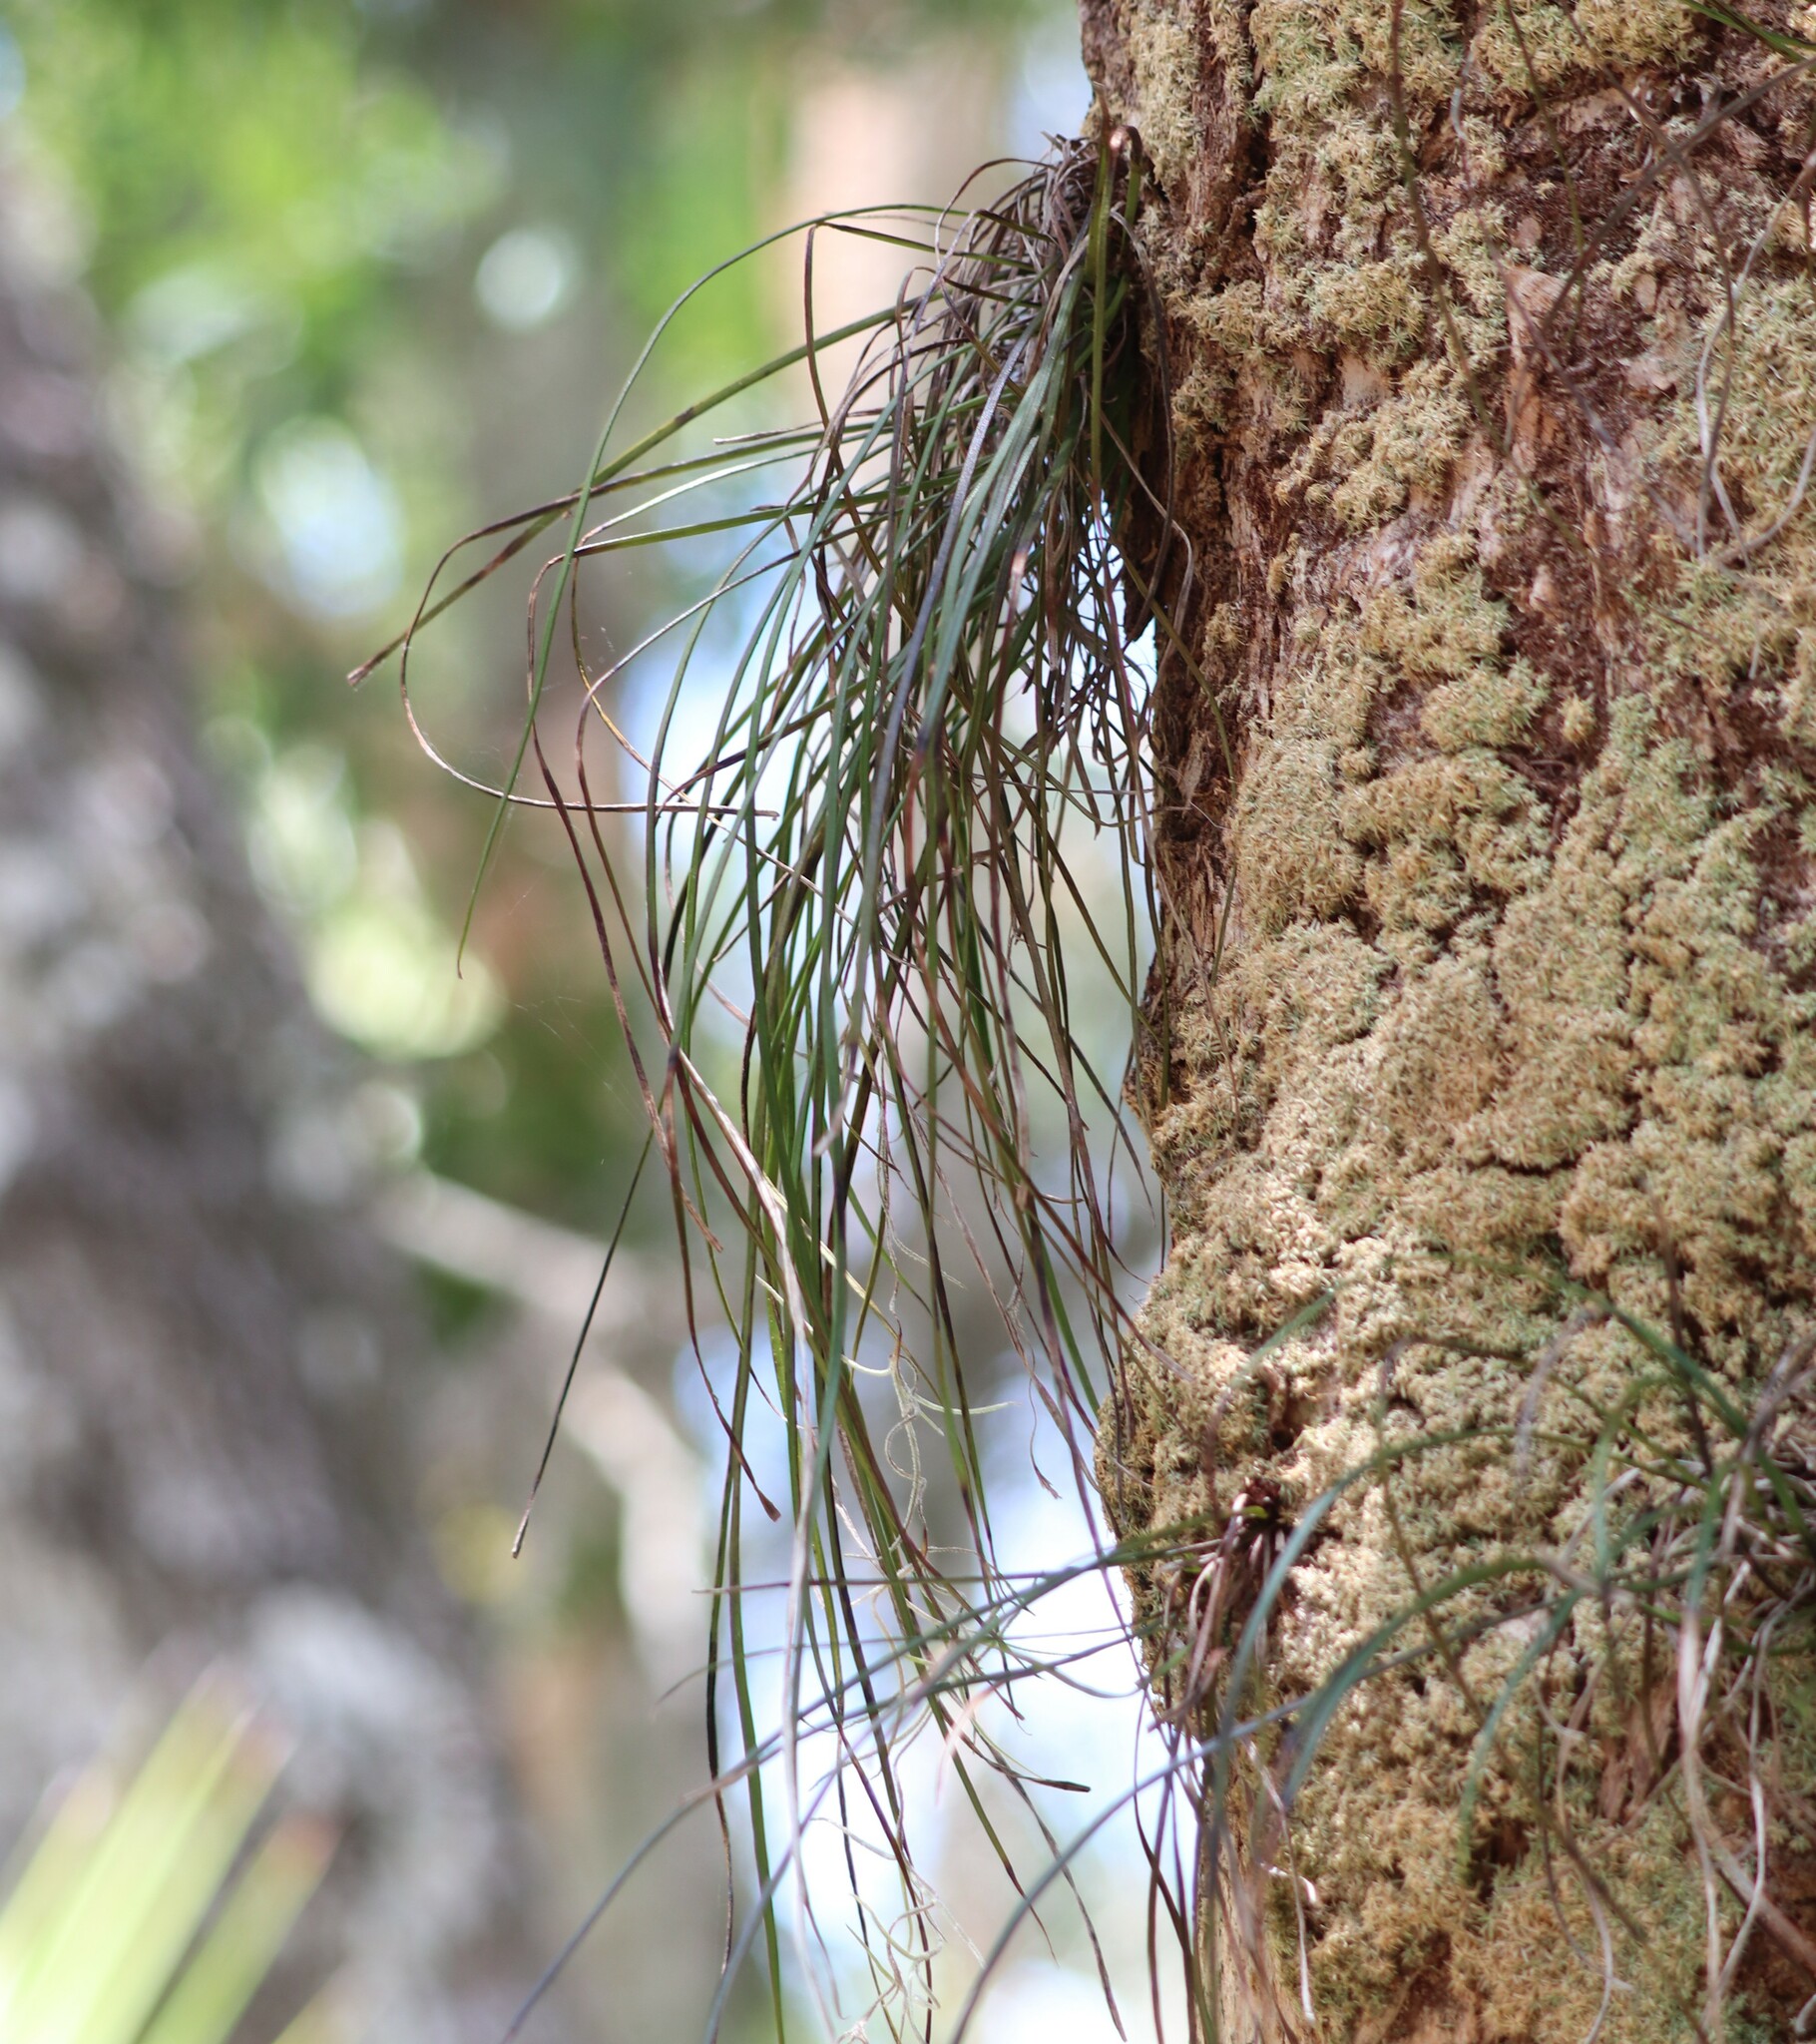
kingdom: Plantae
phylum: Tracheophyta
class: Polypodiopsida
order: Polypodiales
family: Pteridaceae
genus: Vittaria
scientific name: Vittaria lineata
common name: Shoestring fern
